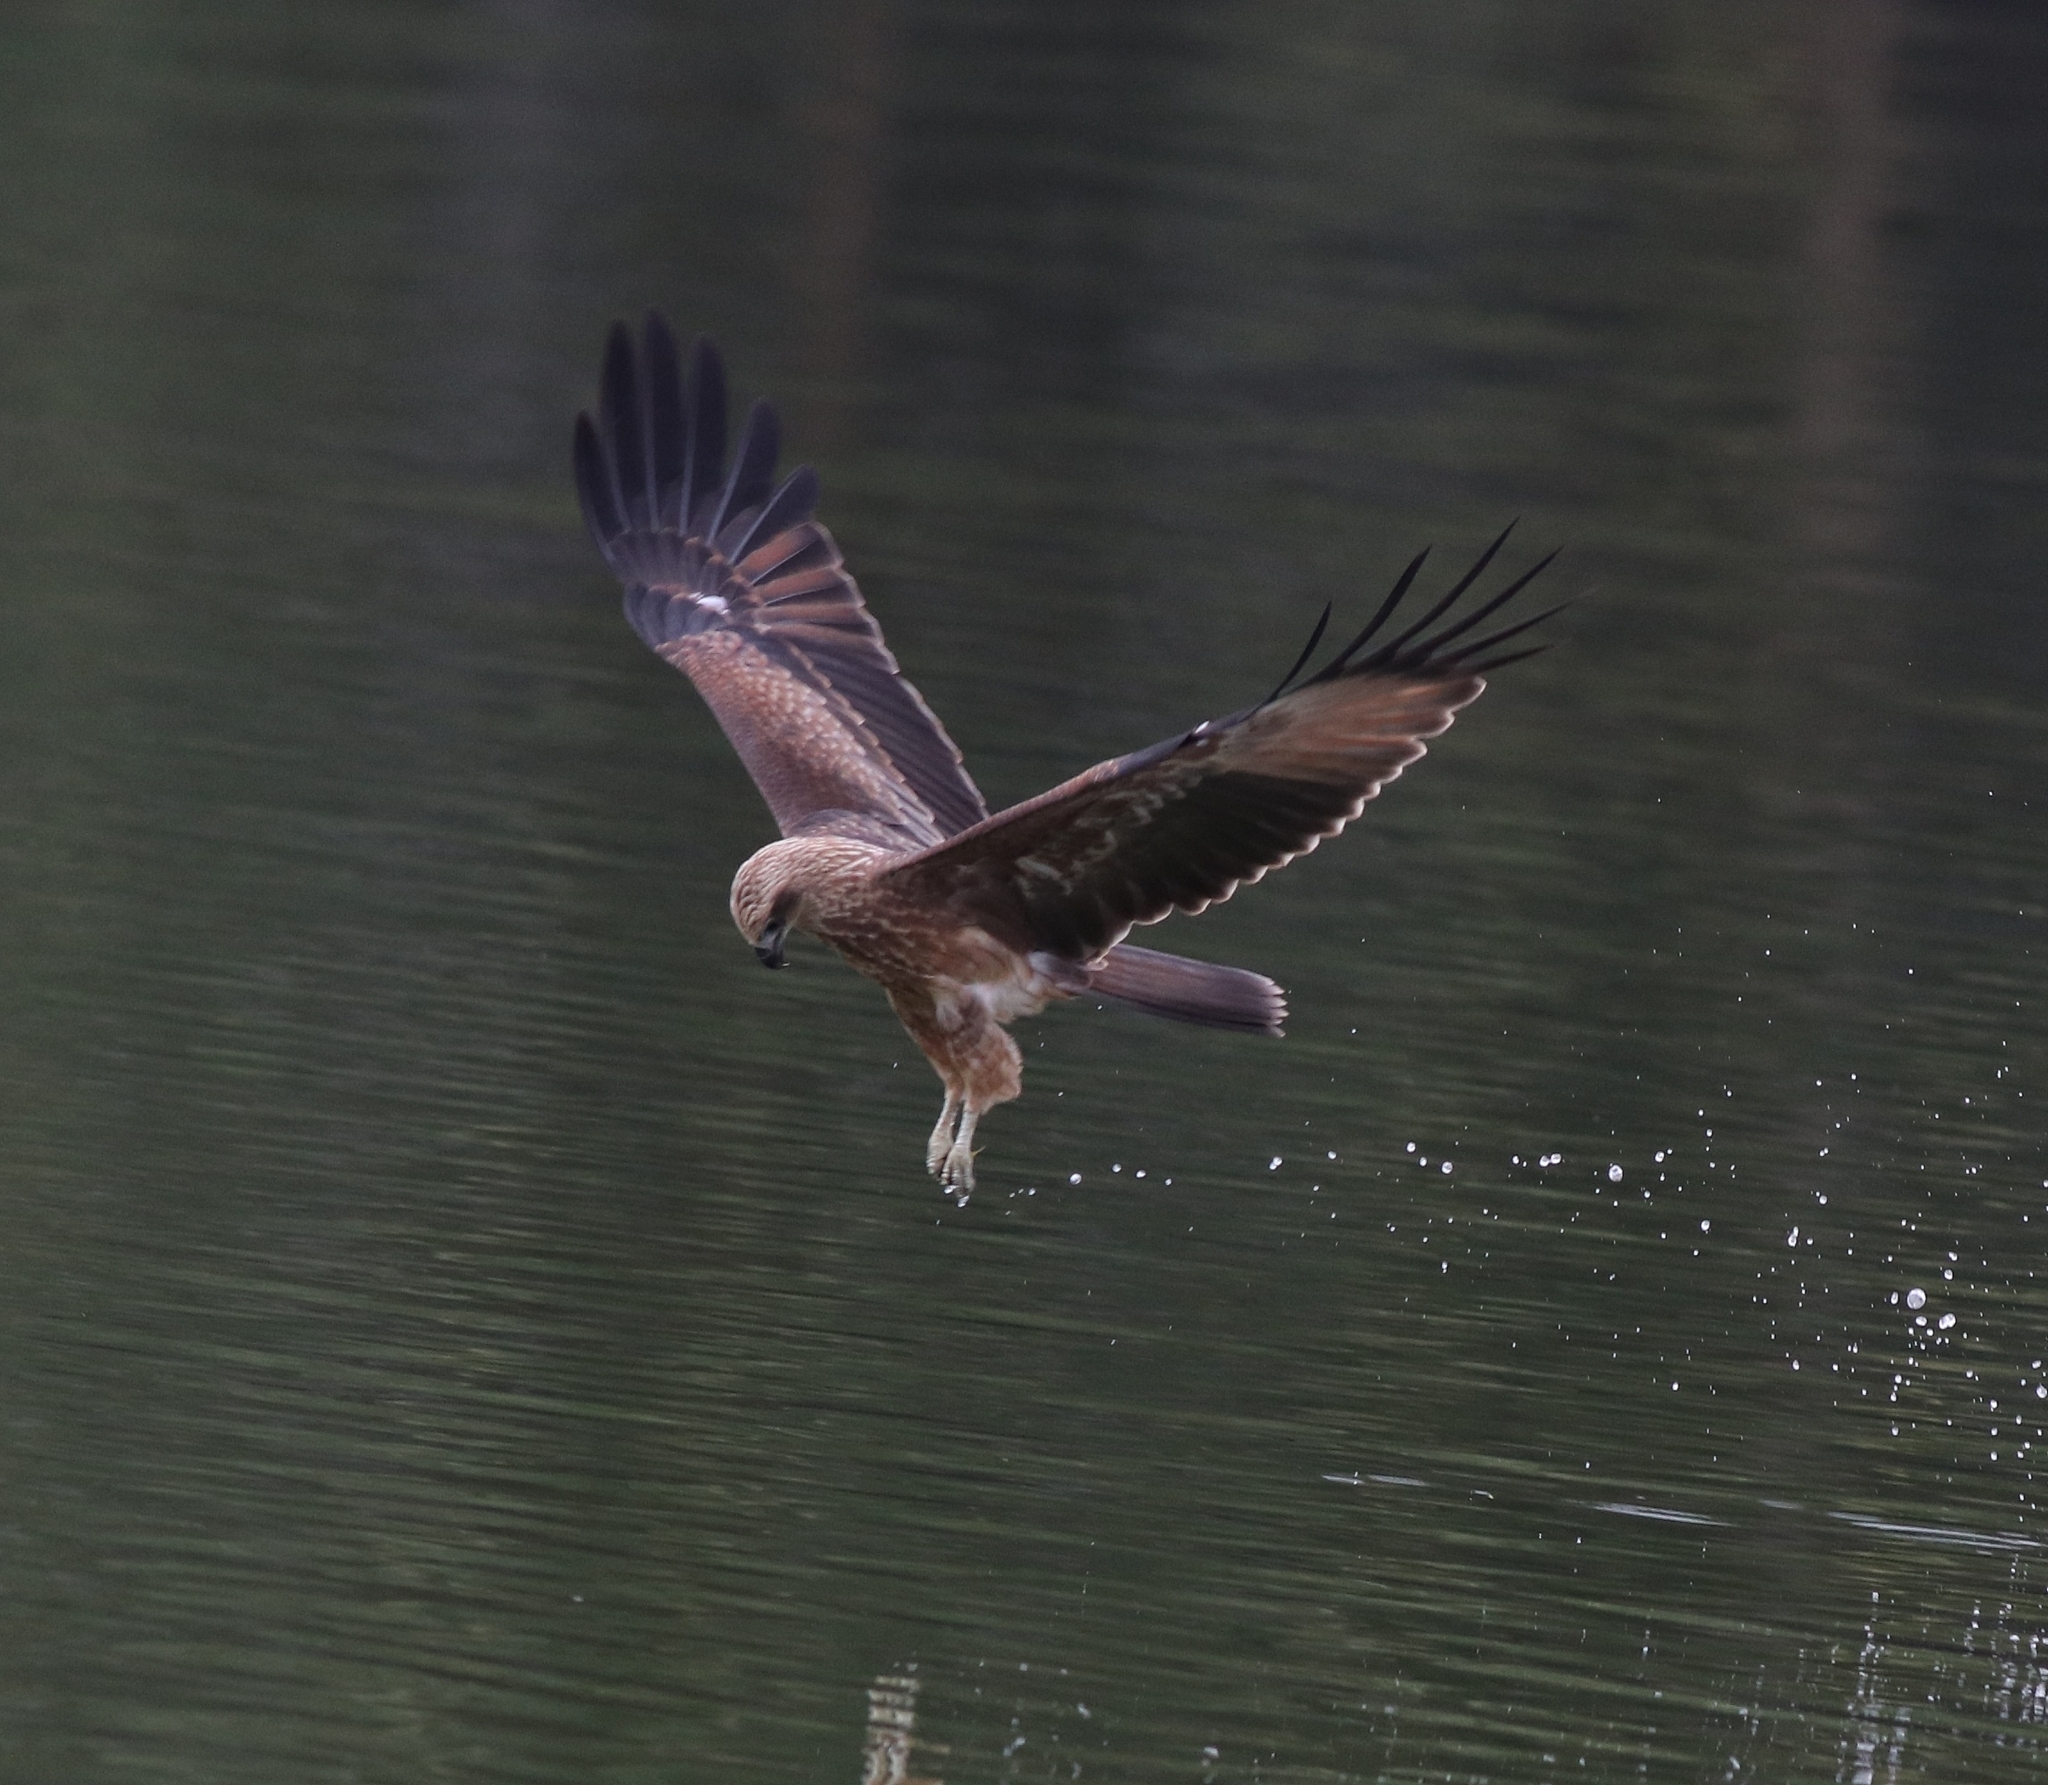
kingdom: Animalia
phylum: Chordata
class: Aves
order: Accipitriformes
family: Accipitridae
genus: Haliastur
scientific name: Haliastur indus
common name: Brahminy kite
